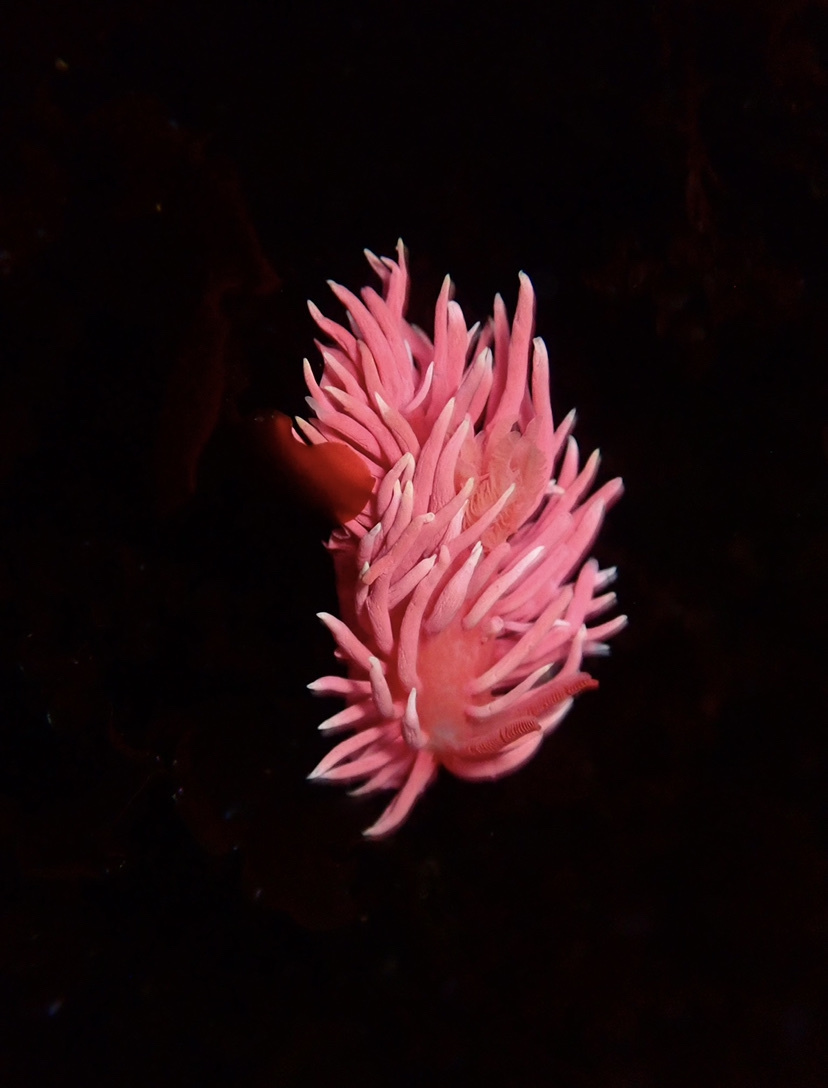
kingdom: Animalia
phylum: Mollusca
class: Gastropoda
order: Nudibranchia
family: Goniodorididae
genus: Okenia
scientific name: Okenia
